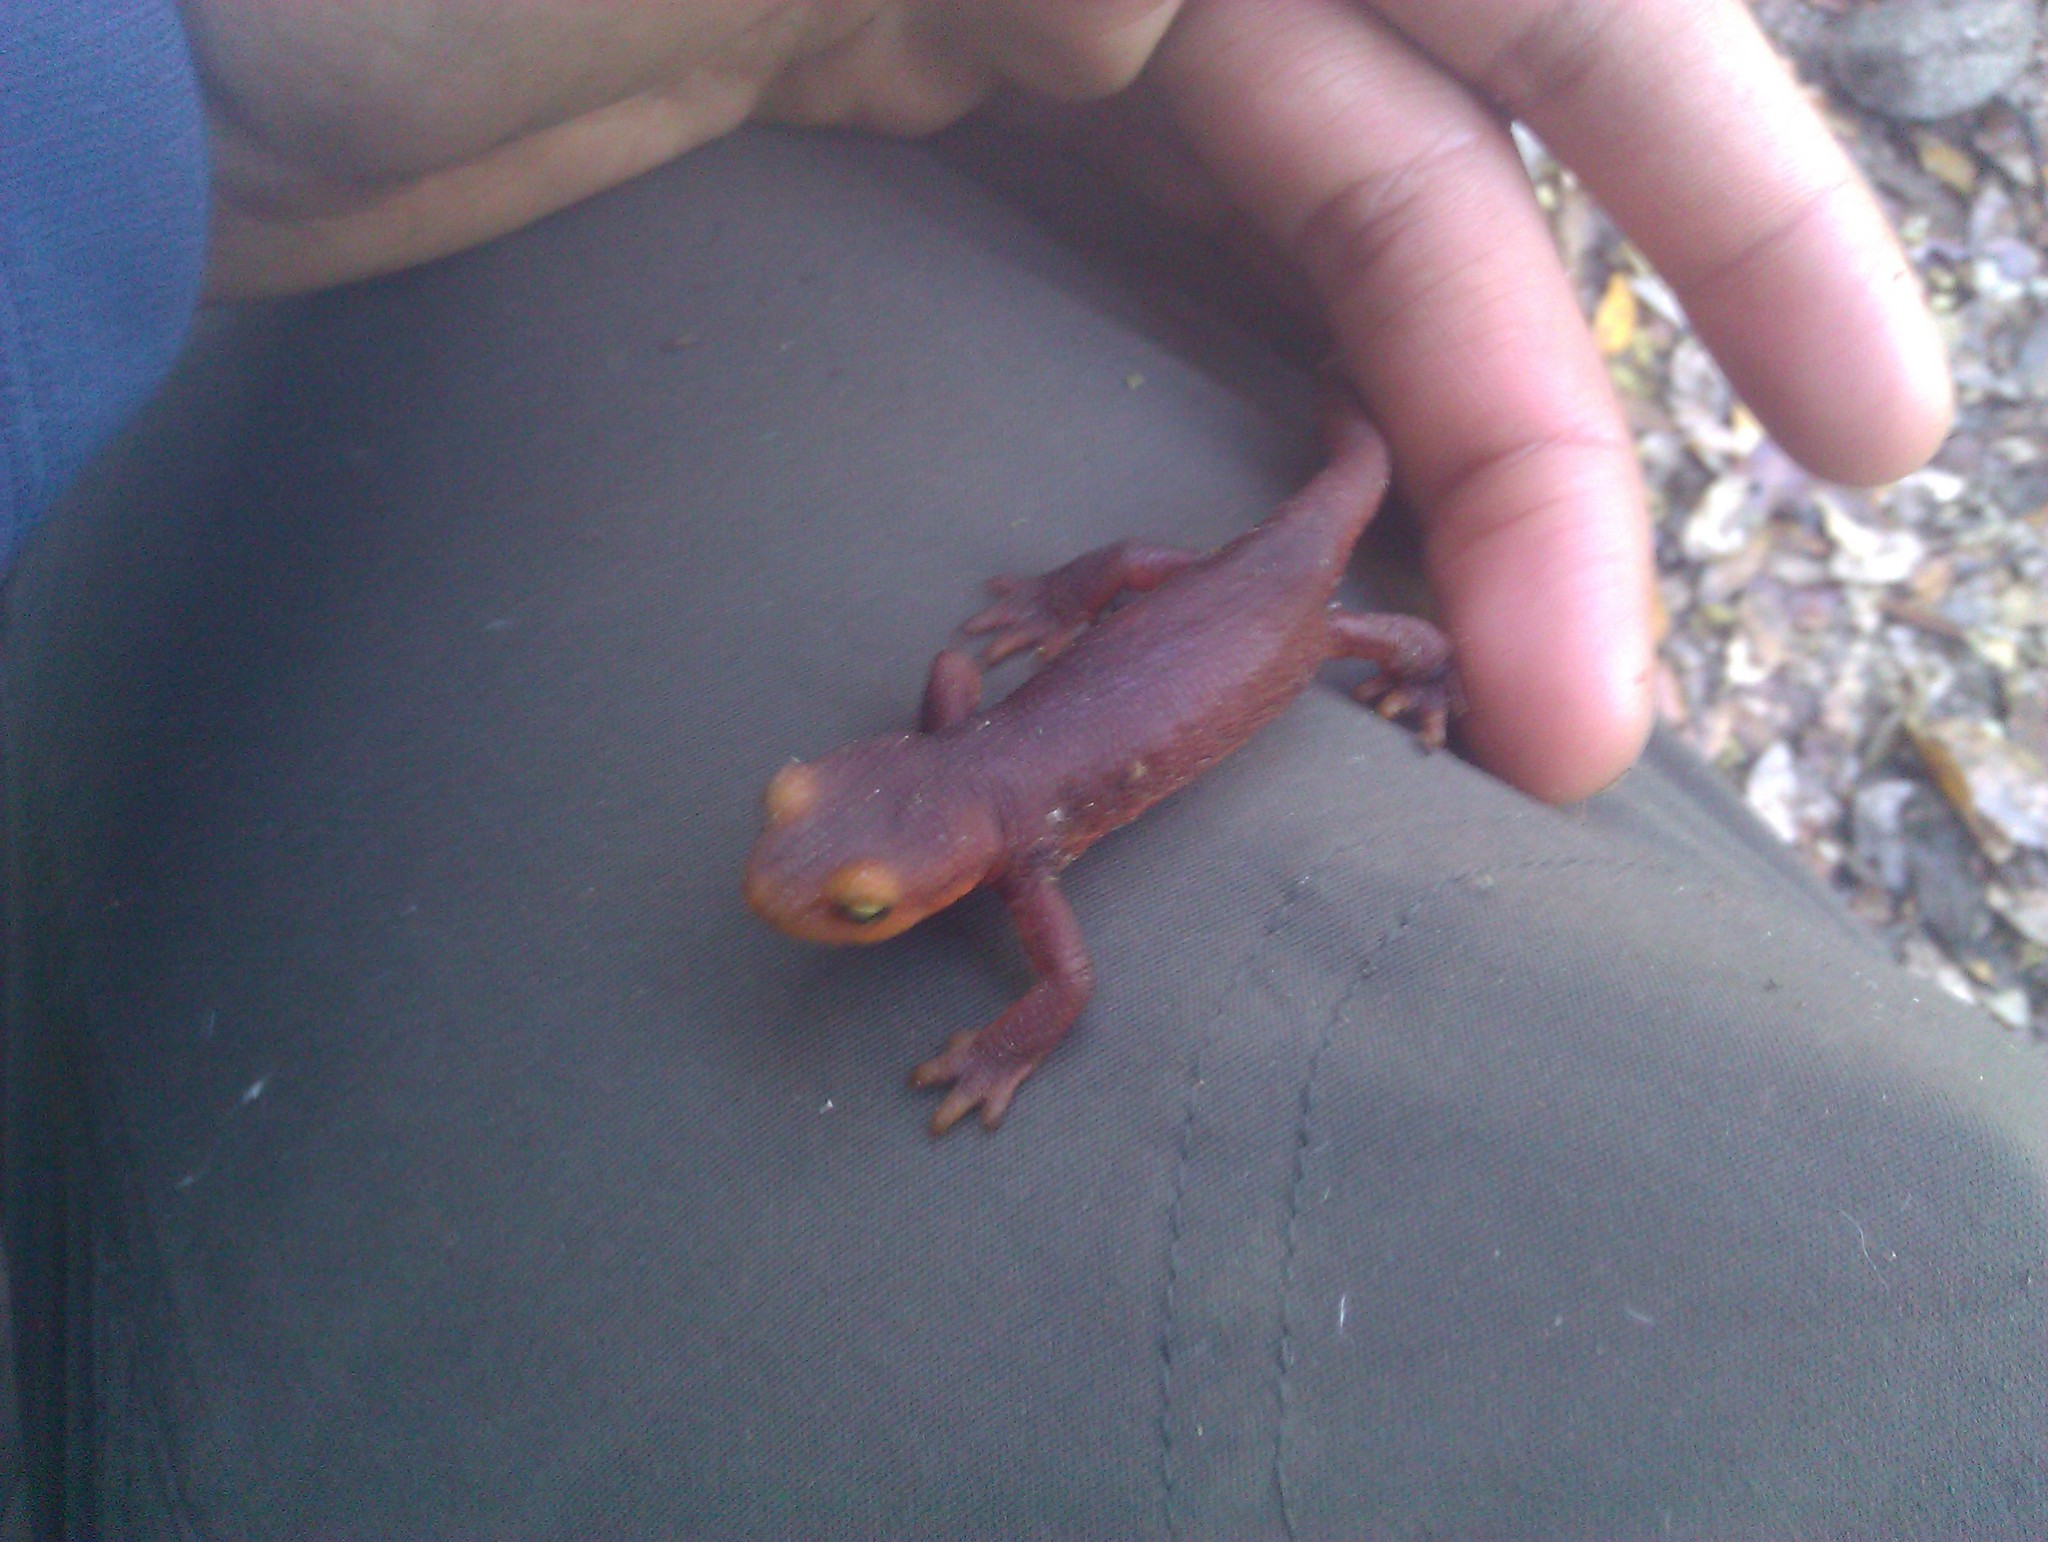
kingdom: Animalia
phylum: Chordata
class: Amphibia
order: Caudata
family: Salamandridae
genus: Taricha
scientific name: Taricha sierrae
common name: Sierra newt
